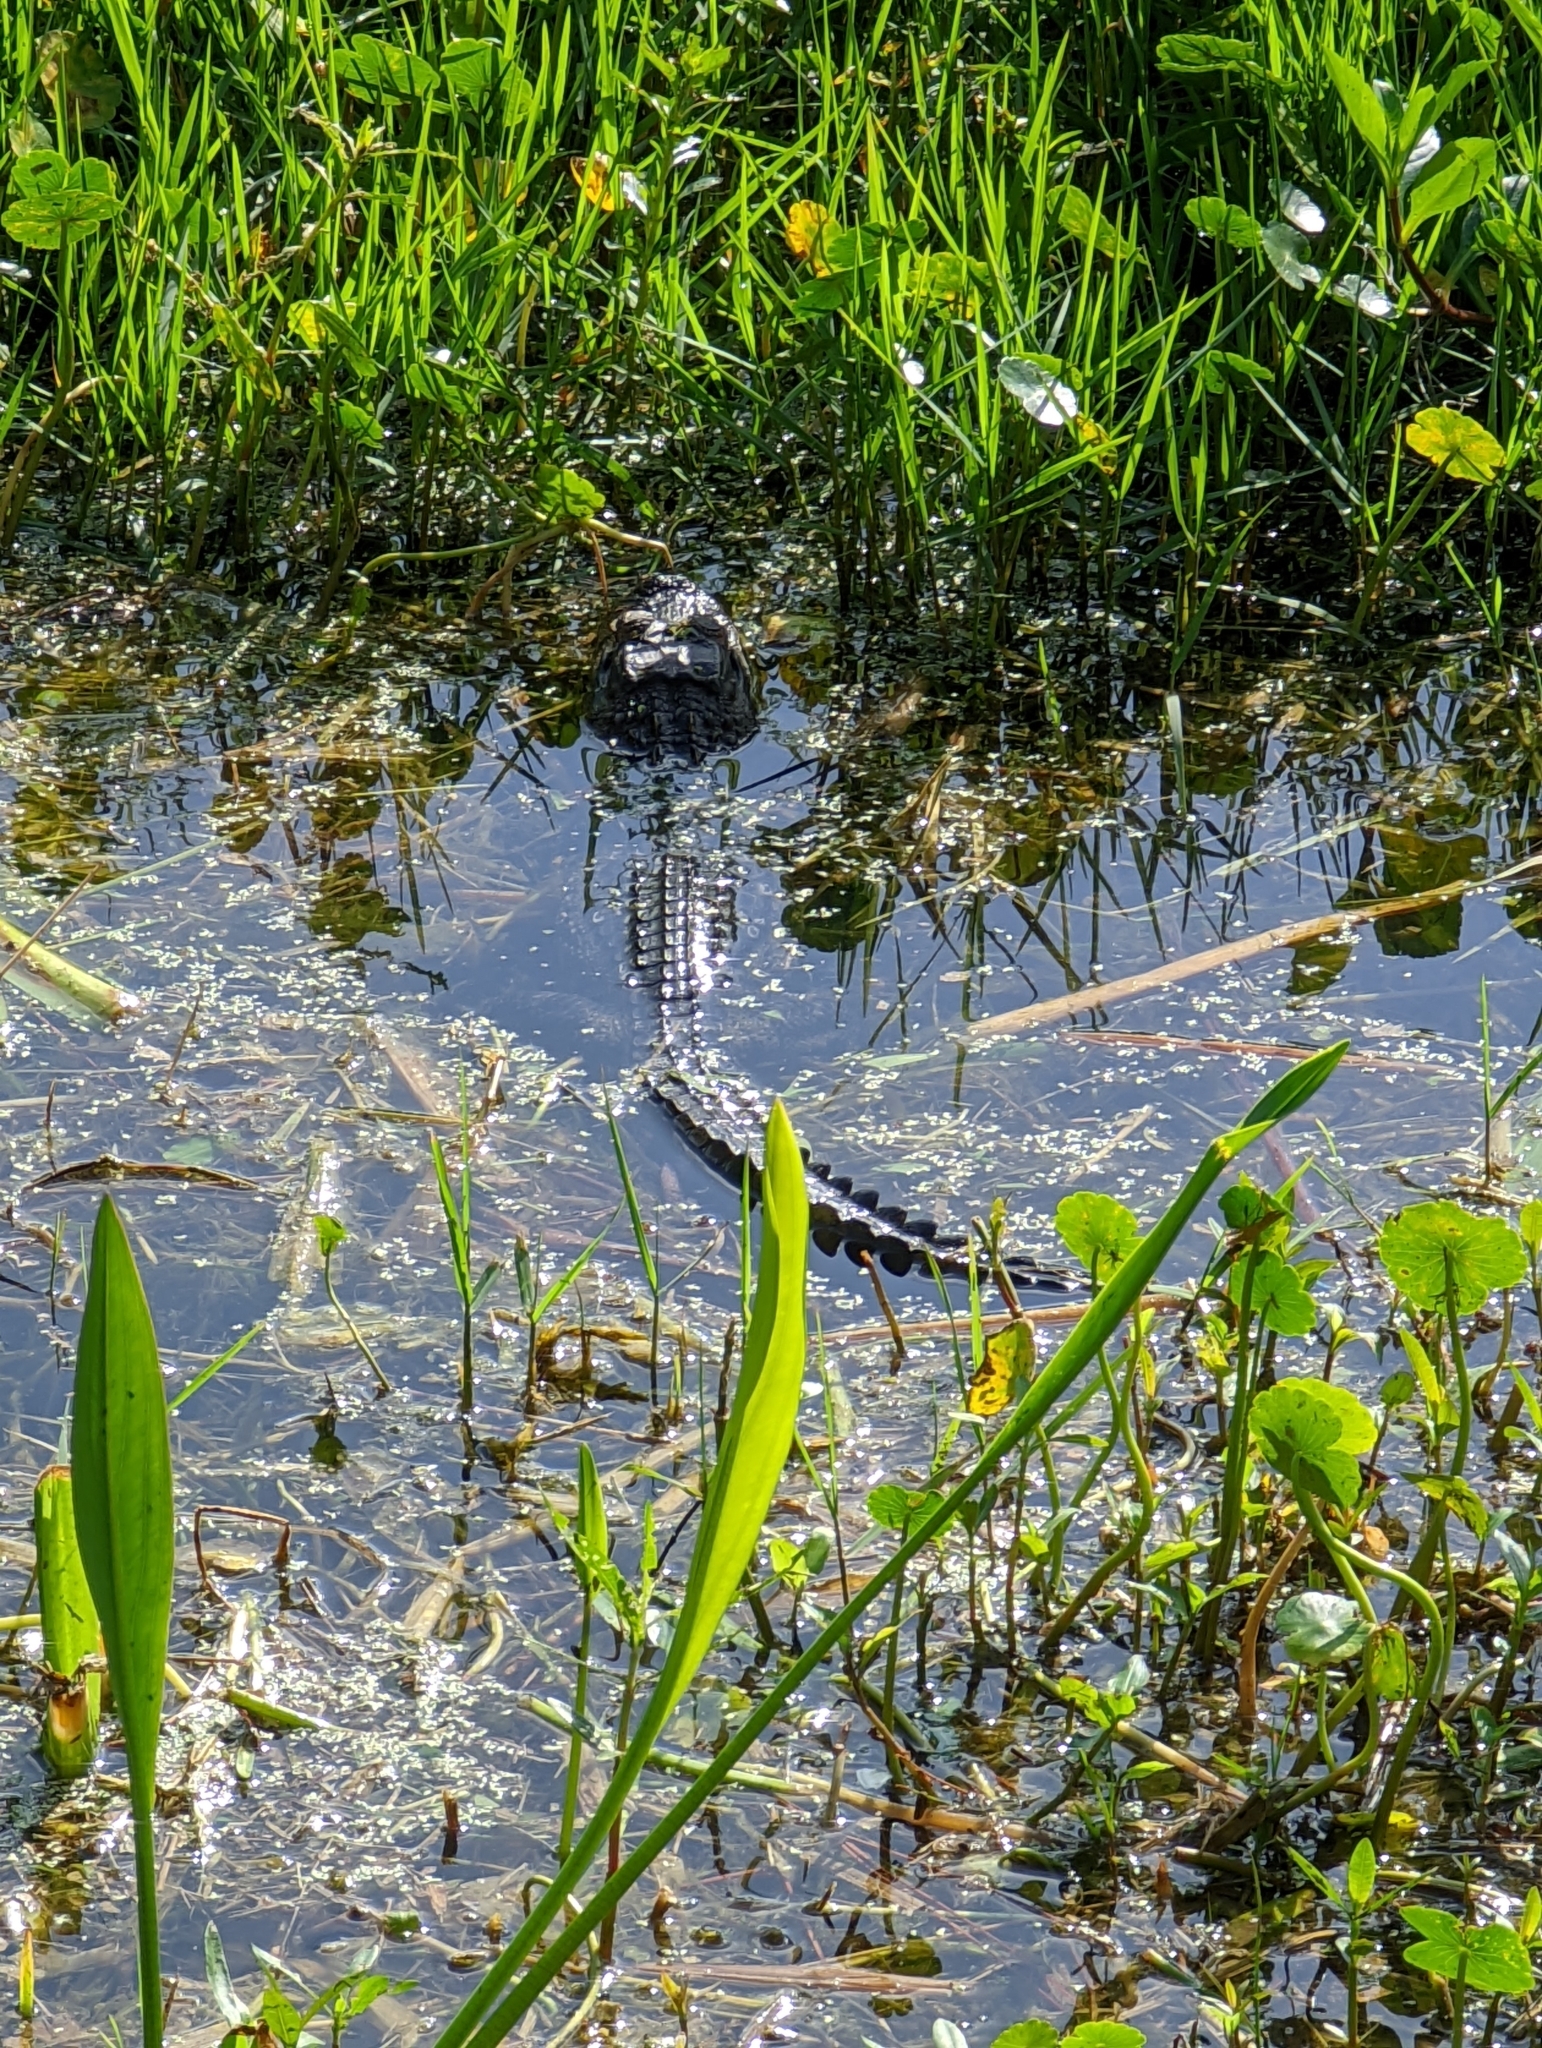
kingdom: Animalia
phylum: Chordata
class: Crocodylia
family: Alligatoridae
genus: Alligator
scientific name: Alligator mississippiensis
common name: American alligator
